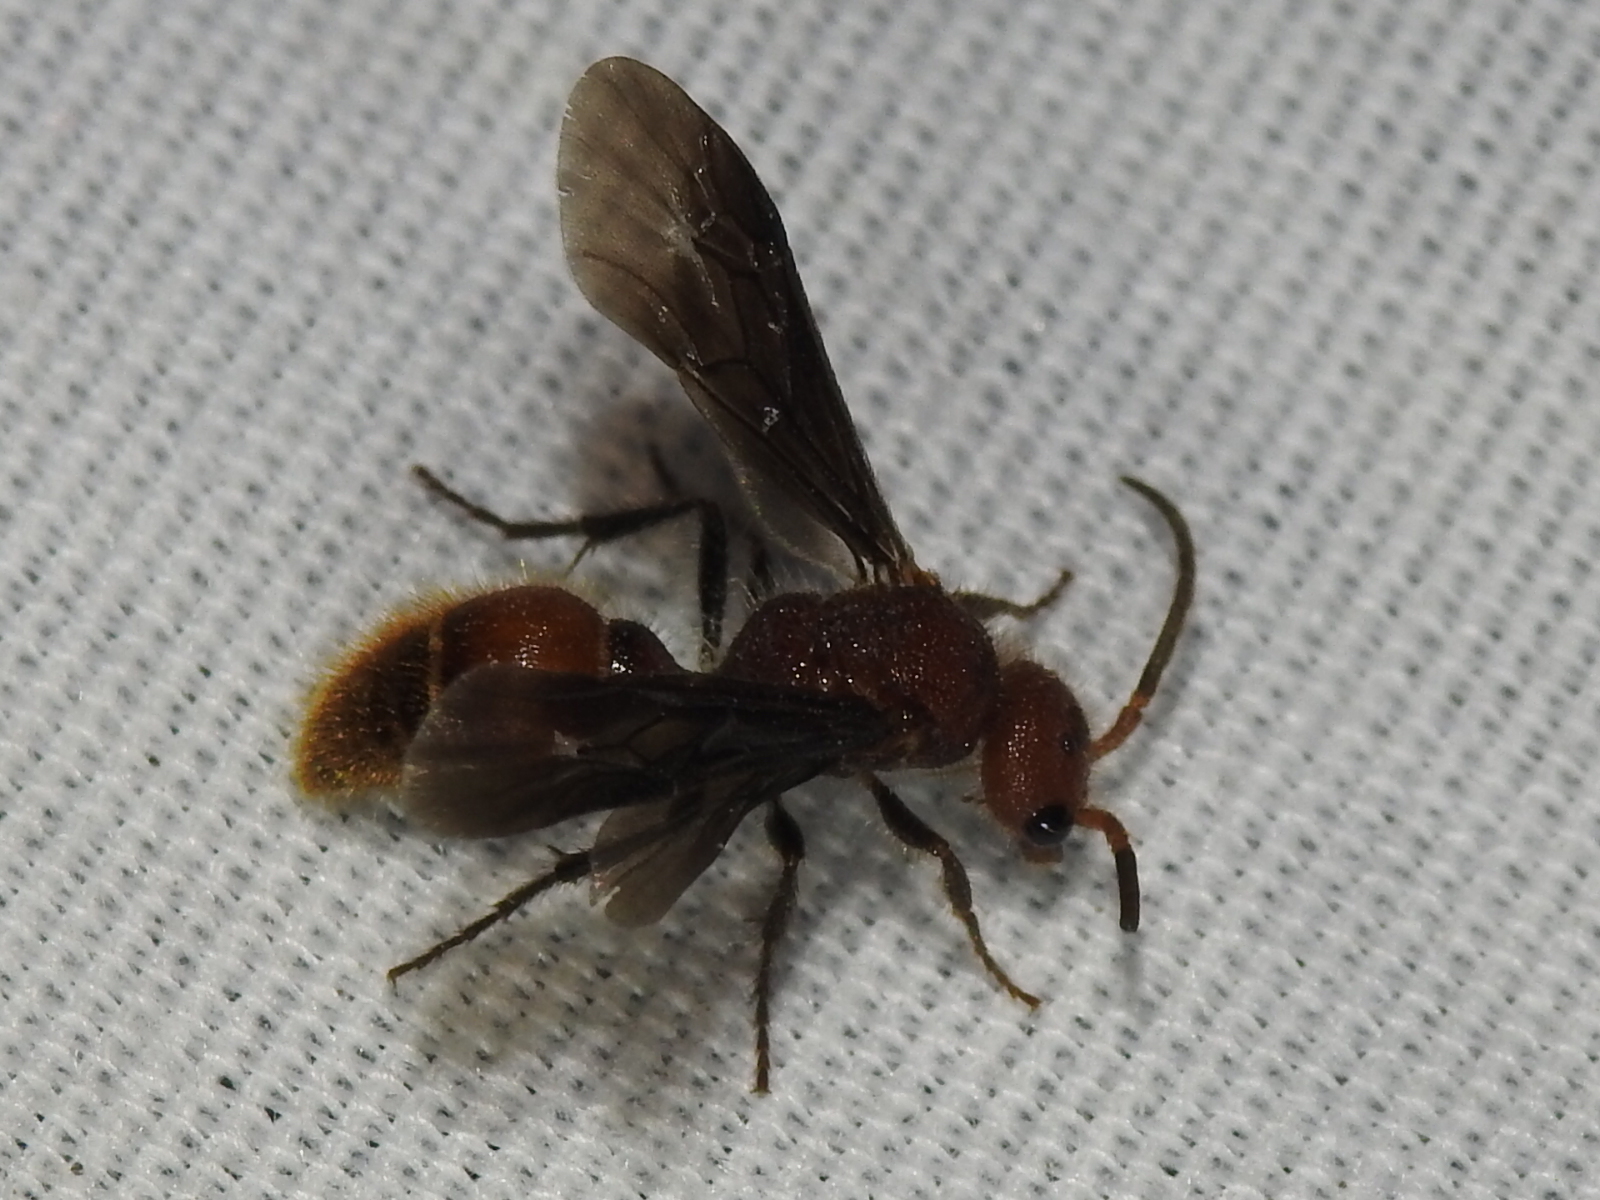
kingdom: Animalia
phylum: Arthropoda
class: Insecta
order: Hymenoptera
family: Mutillidae
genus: Sphaeropthalma
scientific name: Sphaeropthalma
